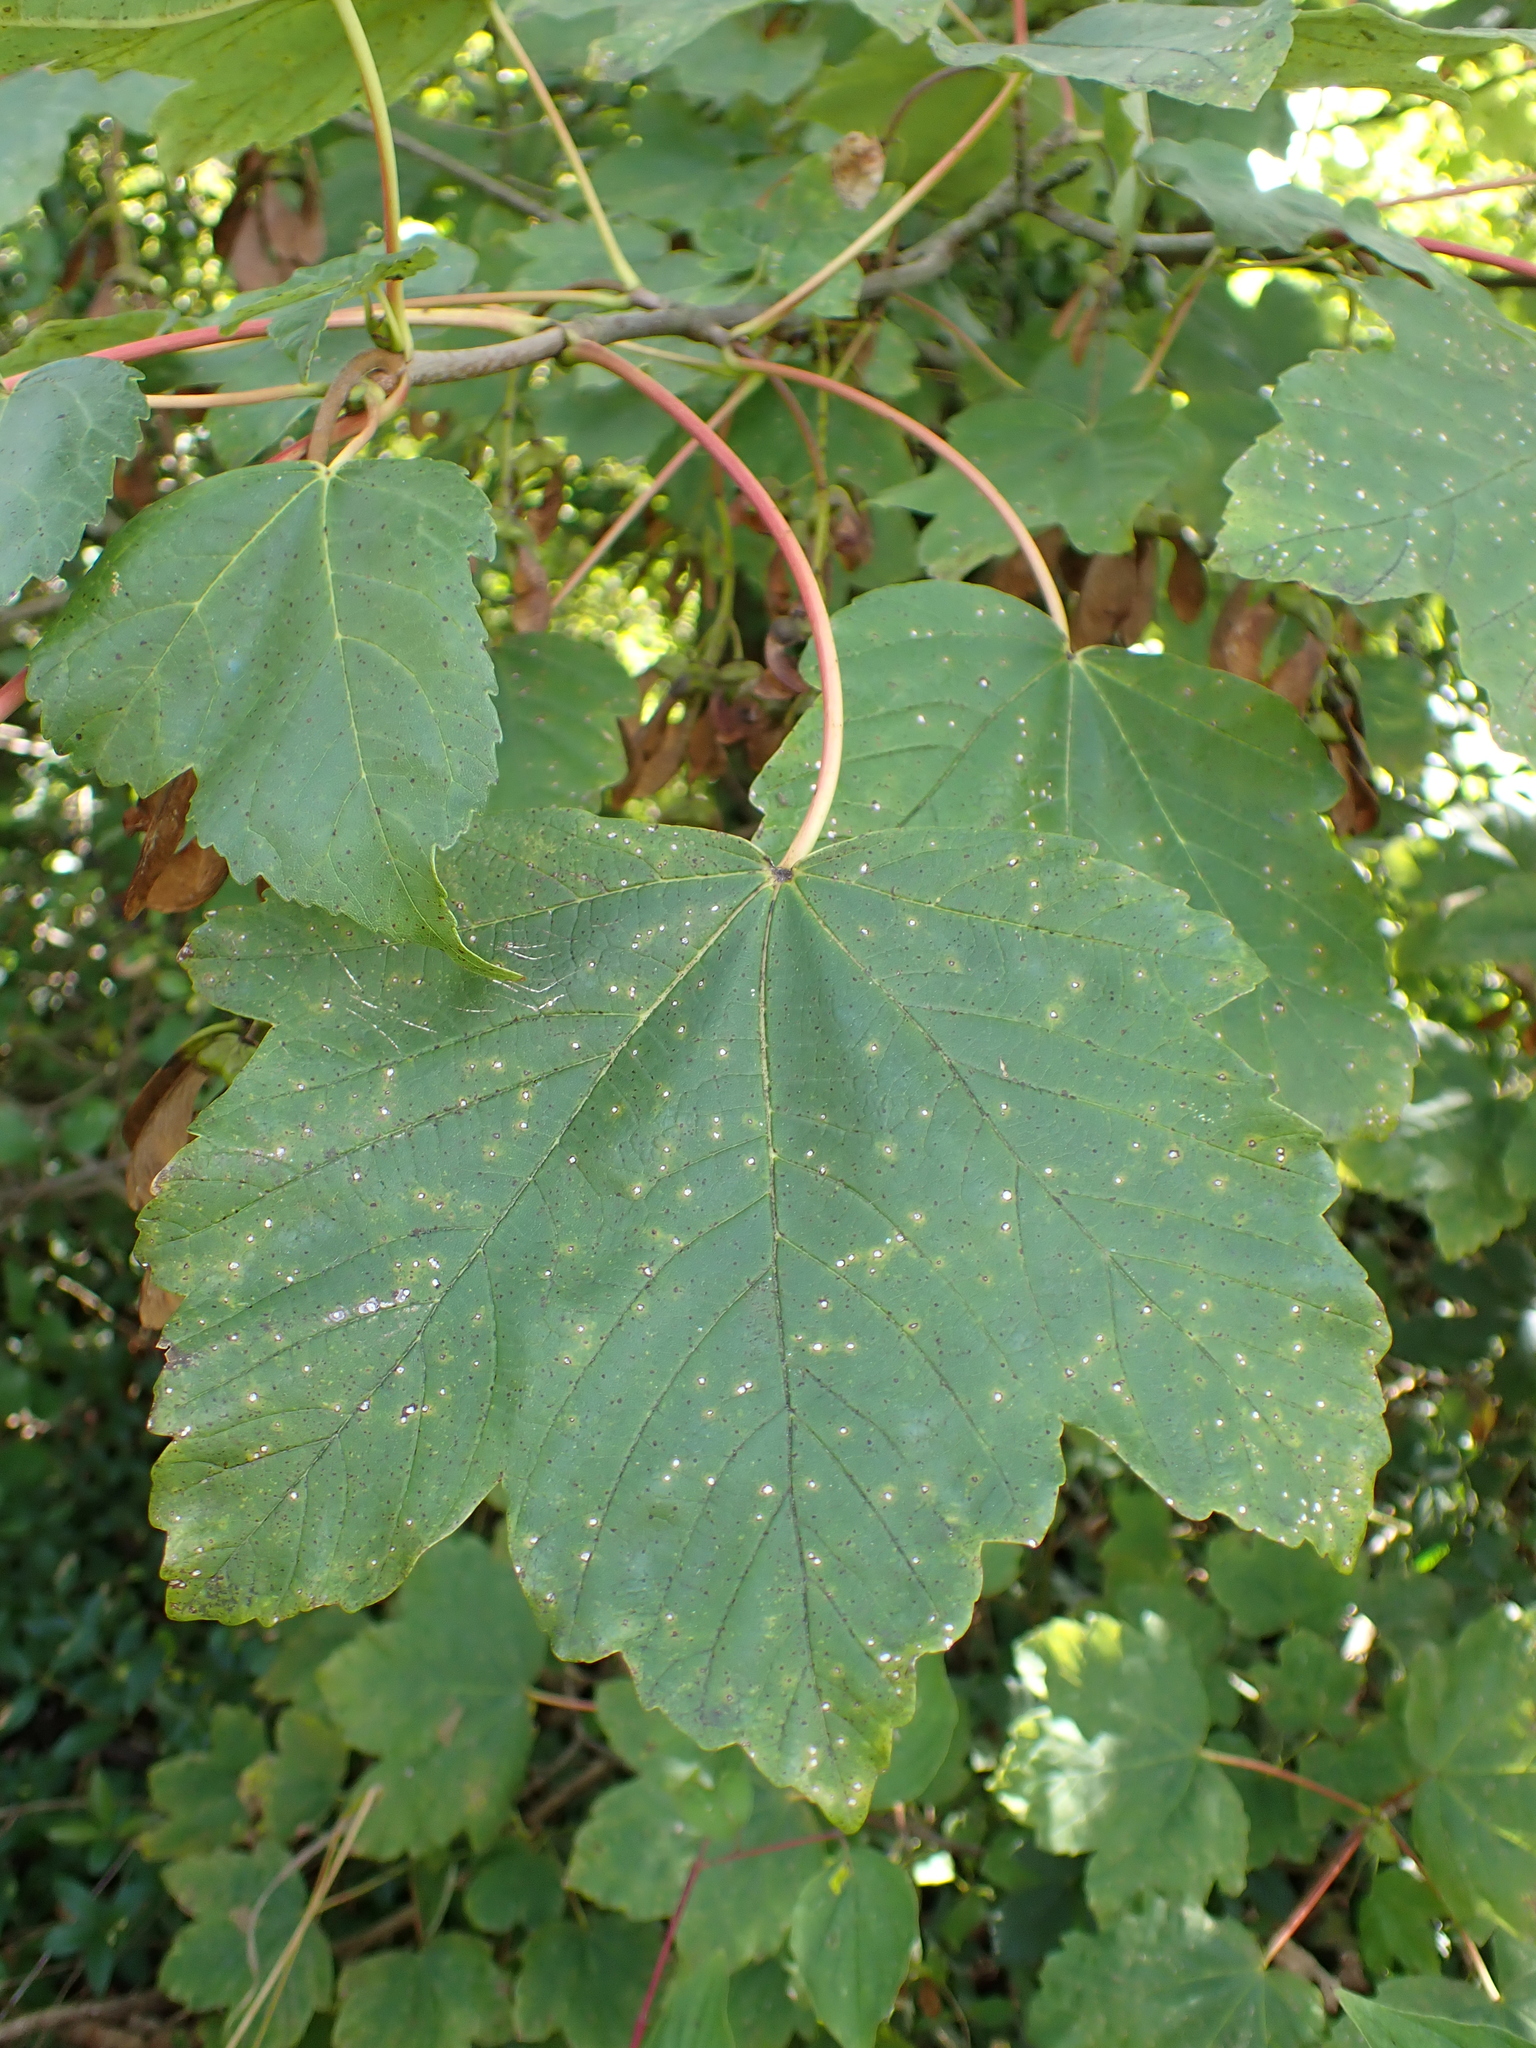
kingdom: Plantae
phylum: Tracheophyta
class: Magnoliopsida
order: Sapindales
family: Sapindaceae
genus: Acer
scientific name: Acer pseudoplatanus
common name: Sycamore
